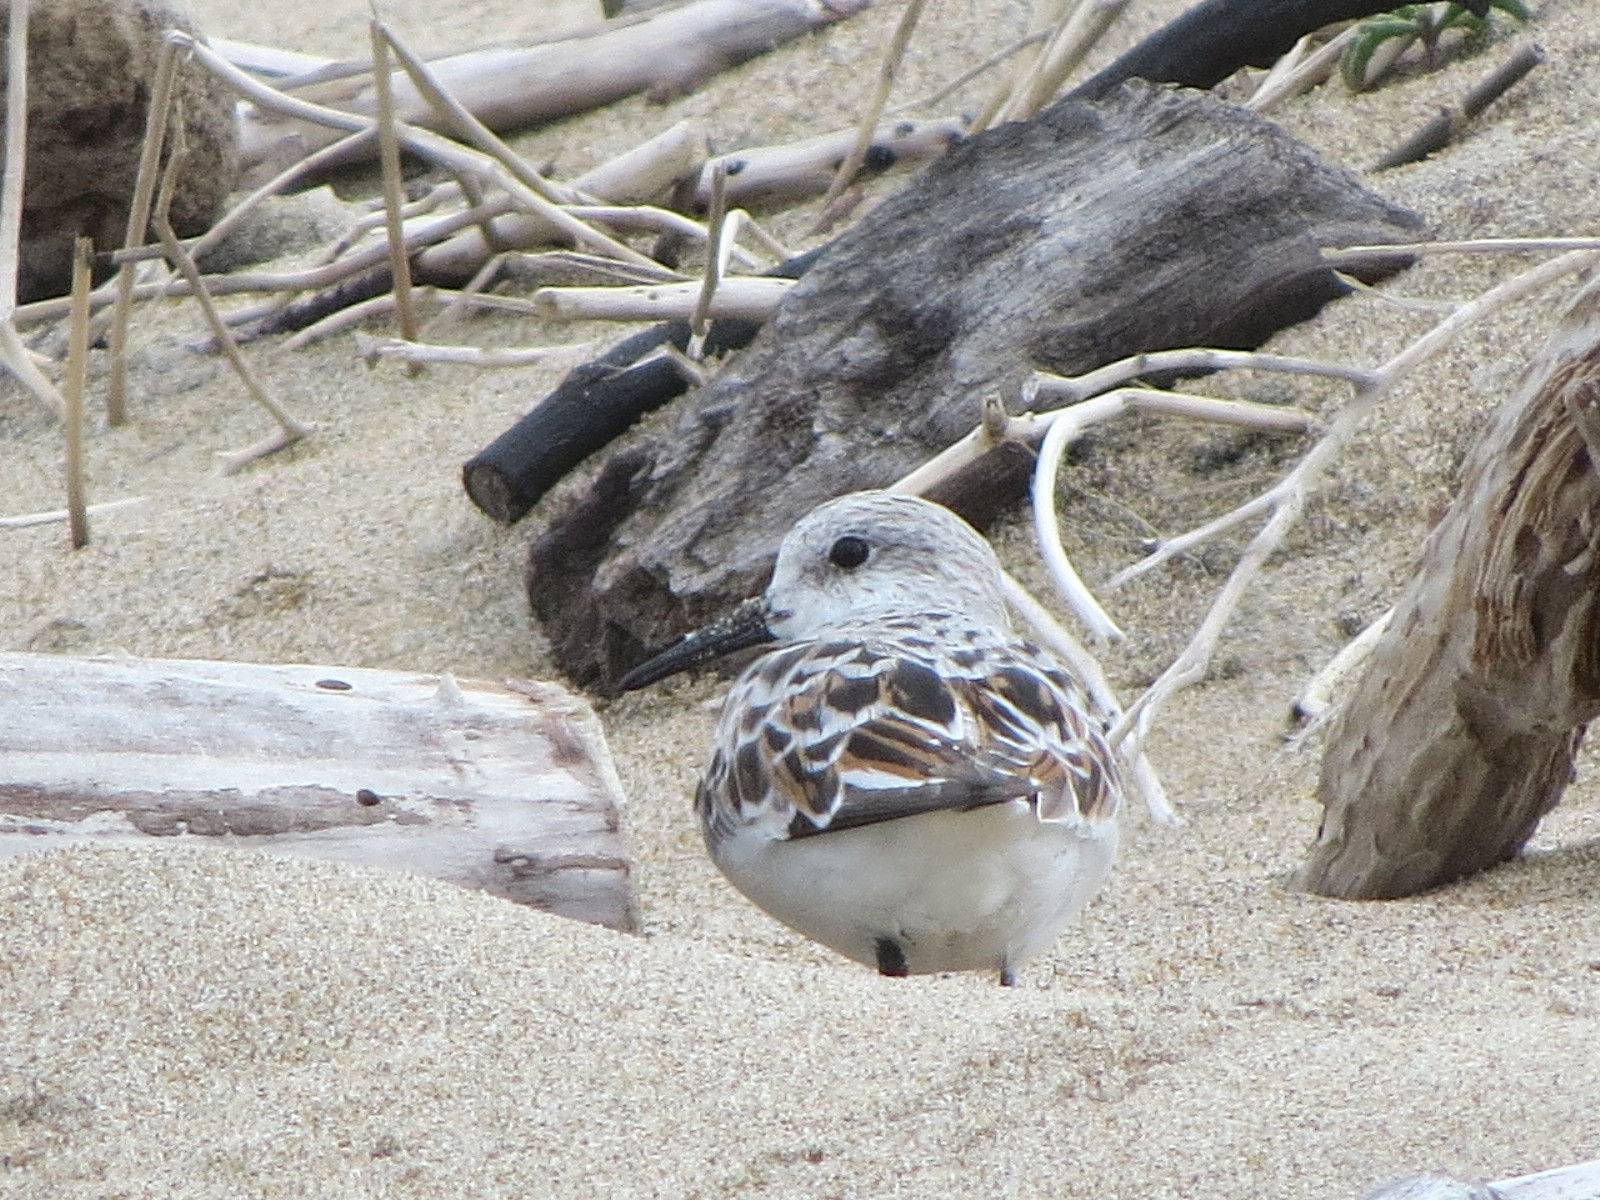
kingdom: Animalia
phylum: Chordata
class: Aves
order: Charadriiformes
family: Scolopacidae
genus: Calidris
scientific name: Calidris alba
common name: Sanderling
